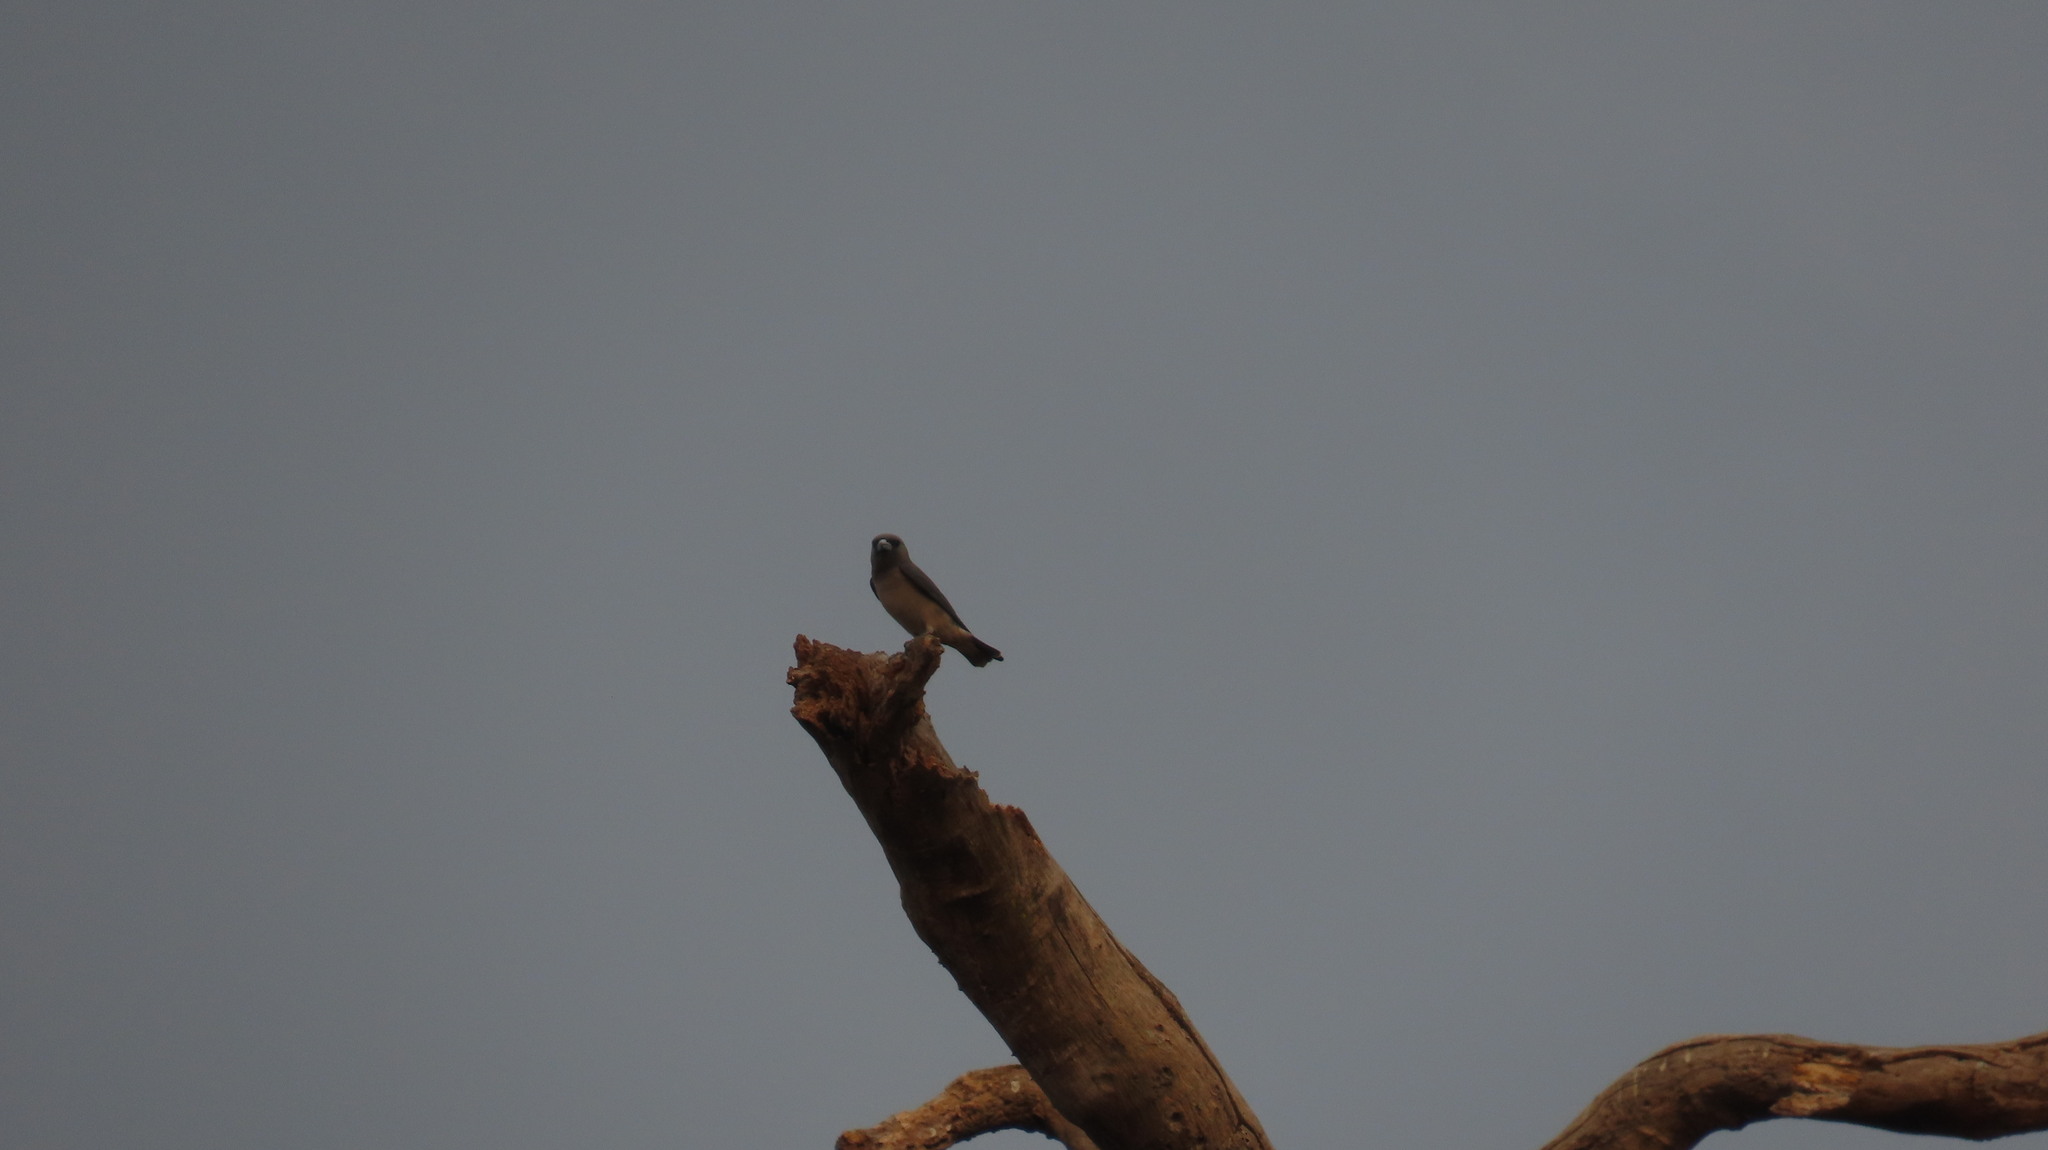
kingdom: Animalia
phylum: Chordata
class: Aves
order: Passeriformes
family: Artamidae
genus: Artamus
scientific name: Artamus fuscus
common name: Ashy woodswallow
